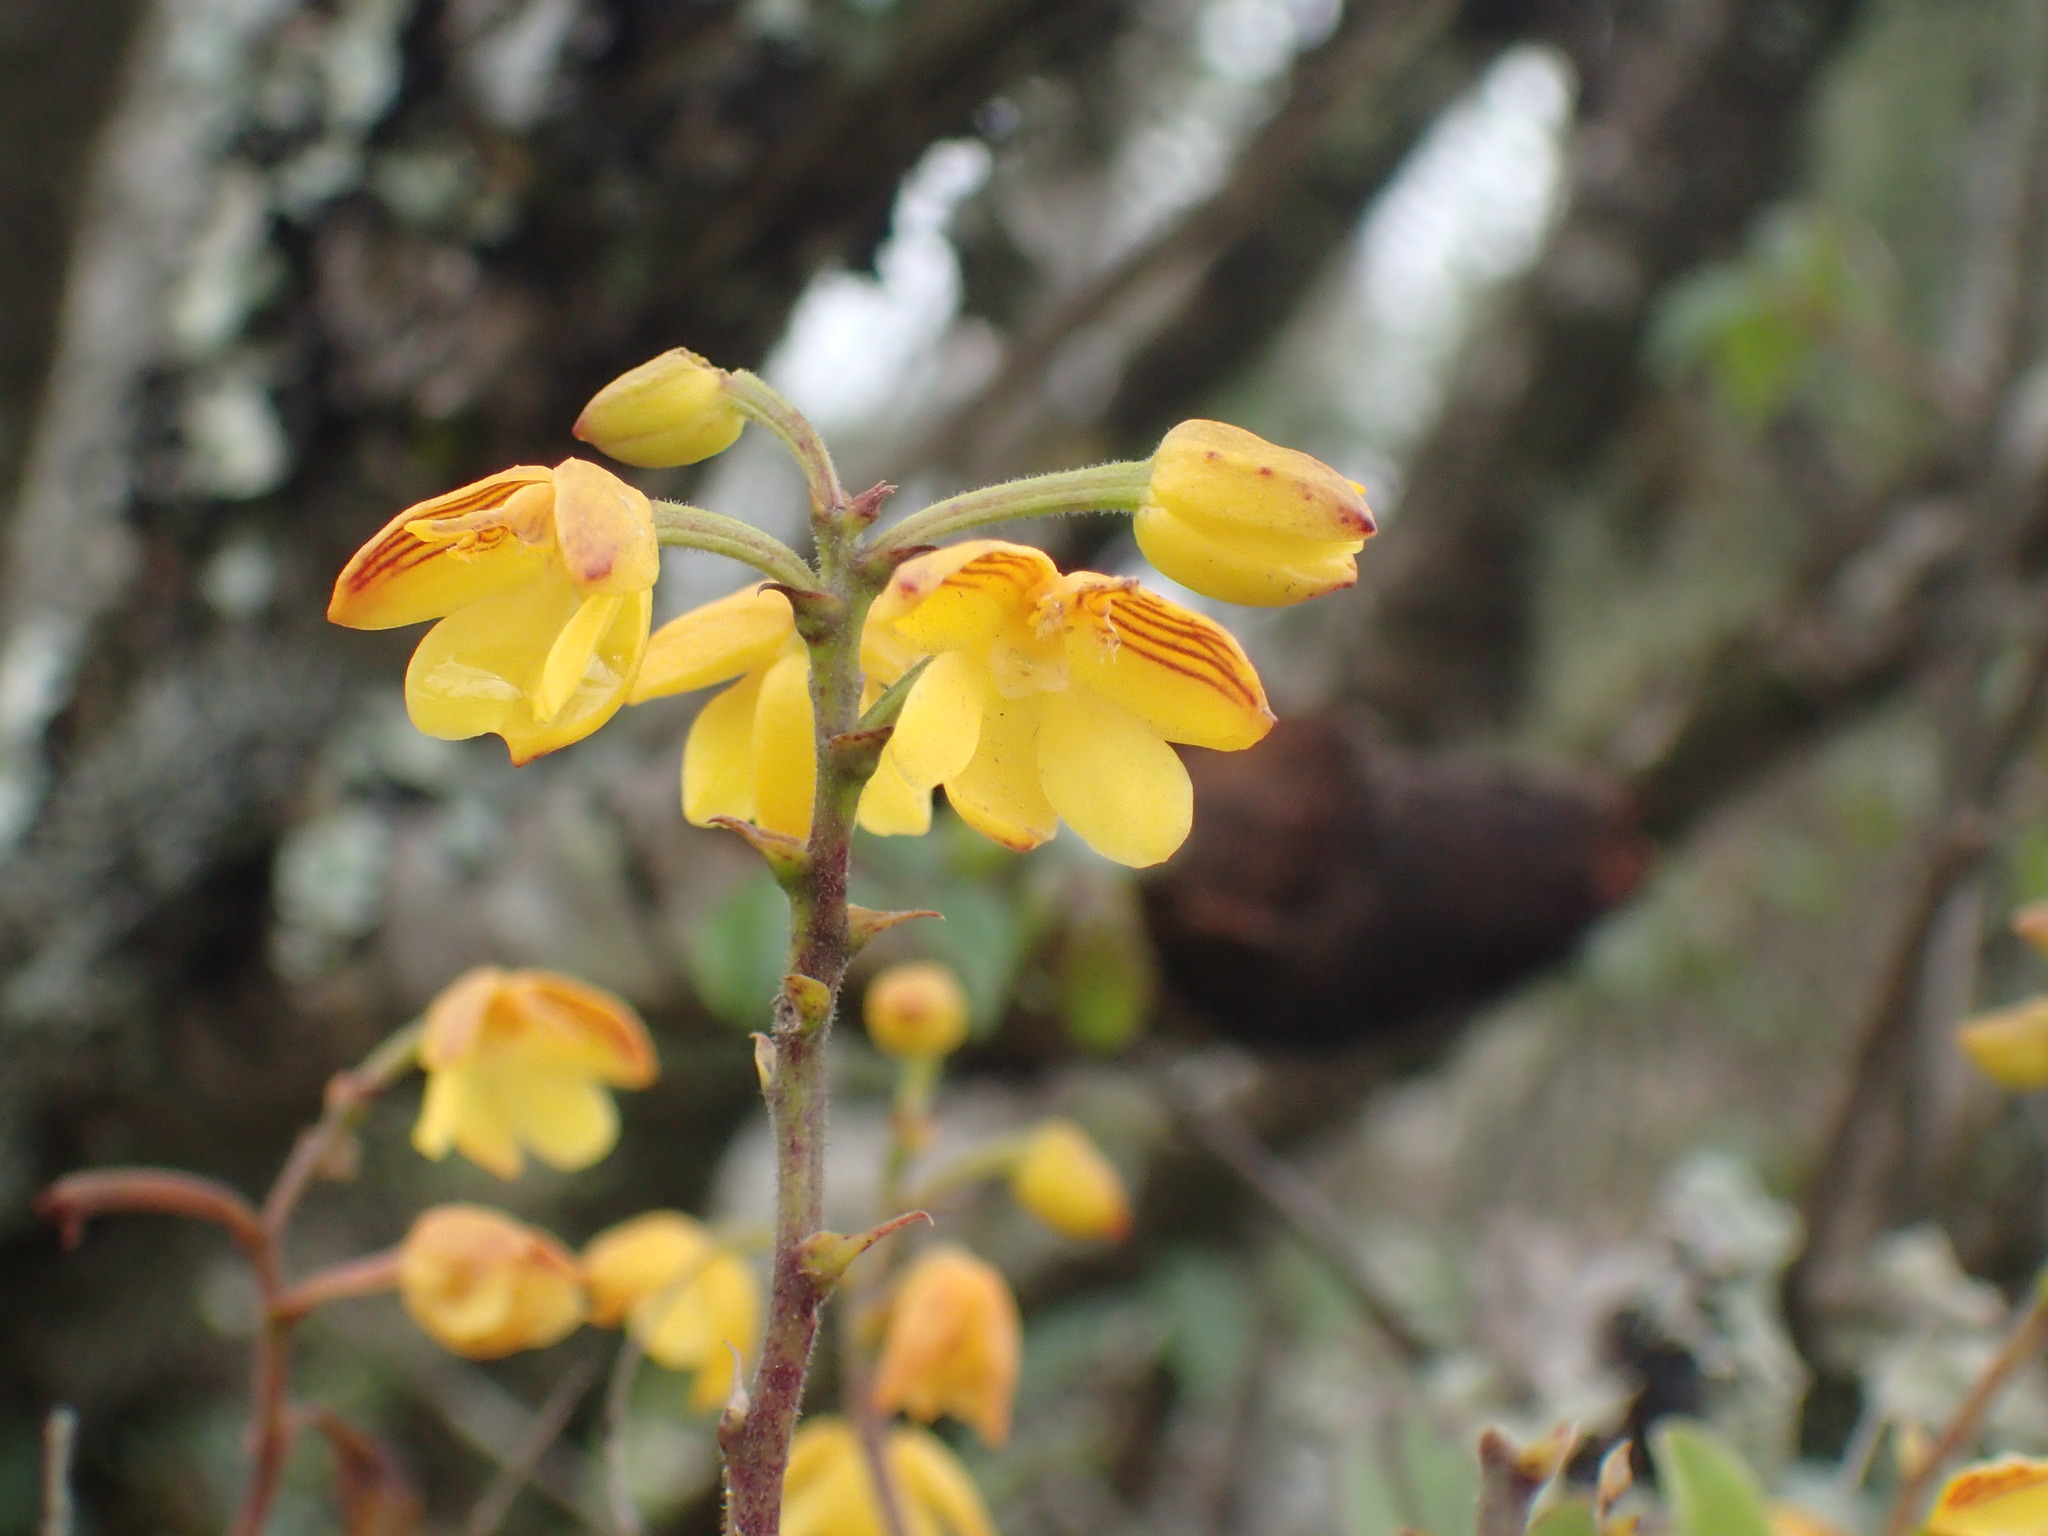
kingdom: Plantae
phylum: Tracheophyta
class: Liliopsida
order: Asparagales
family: Orchidaceae
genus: Polystachya
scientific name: Polystachya pubescens
